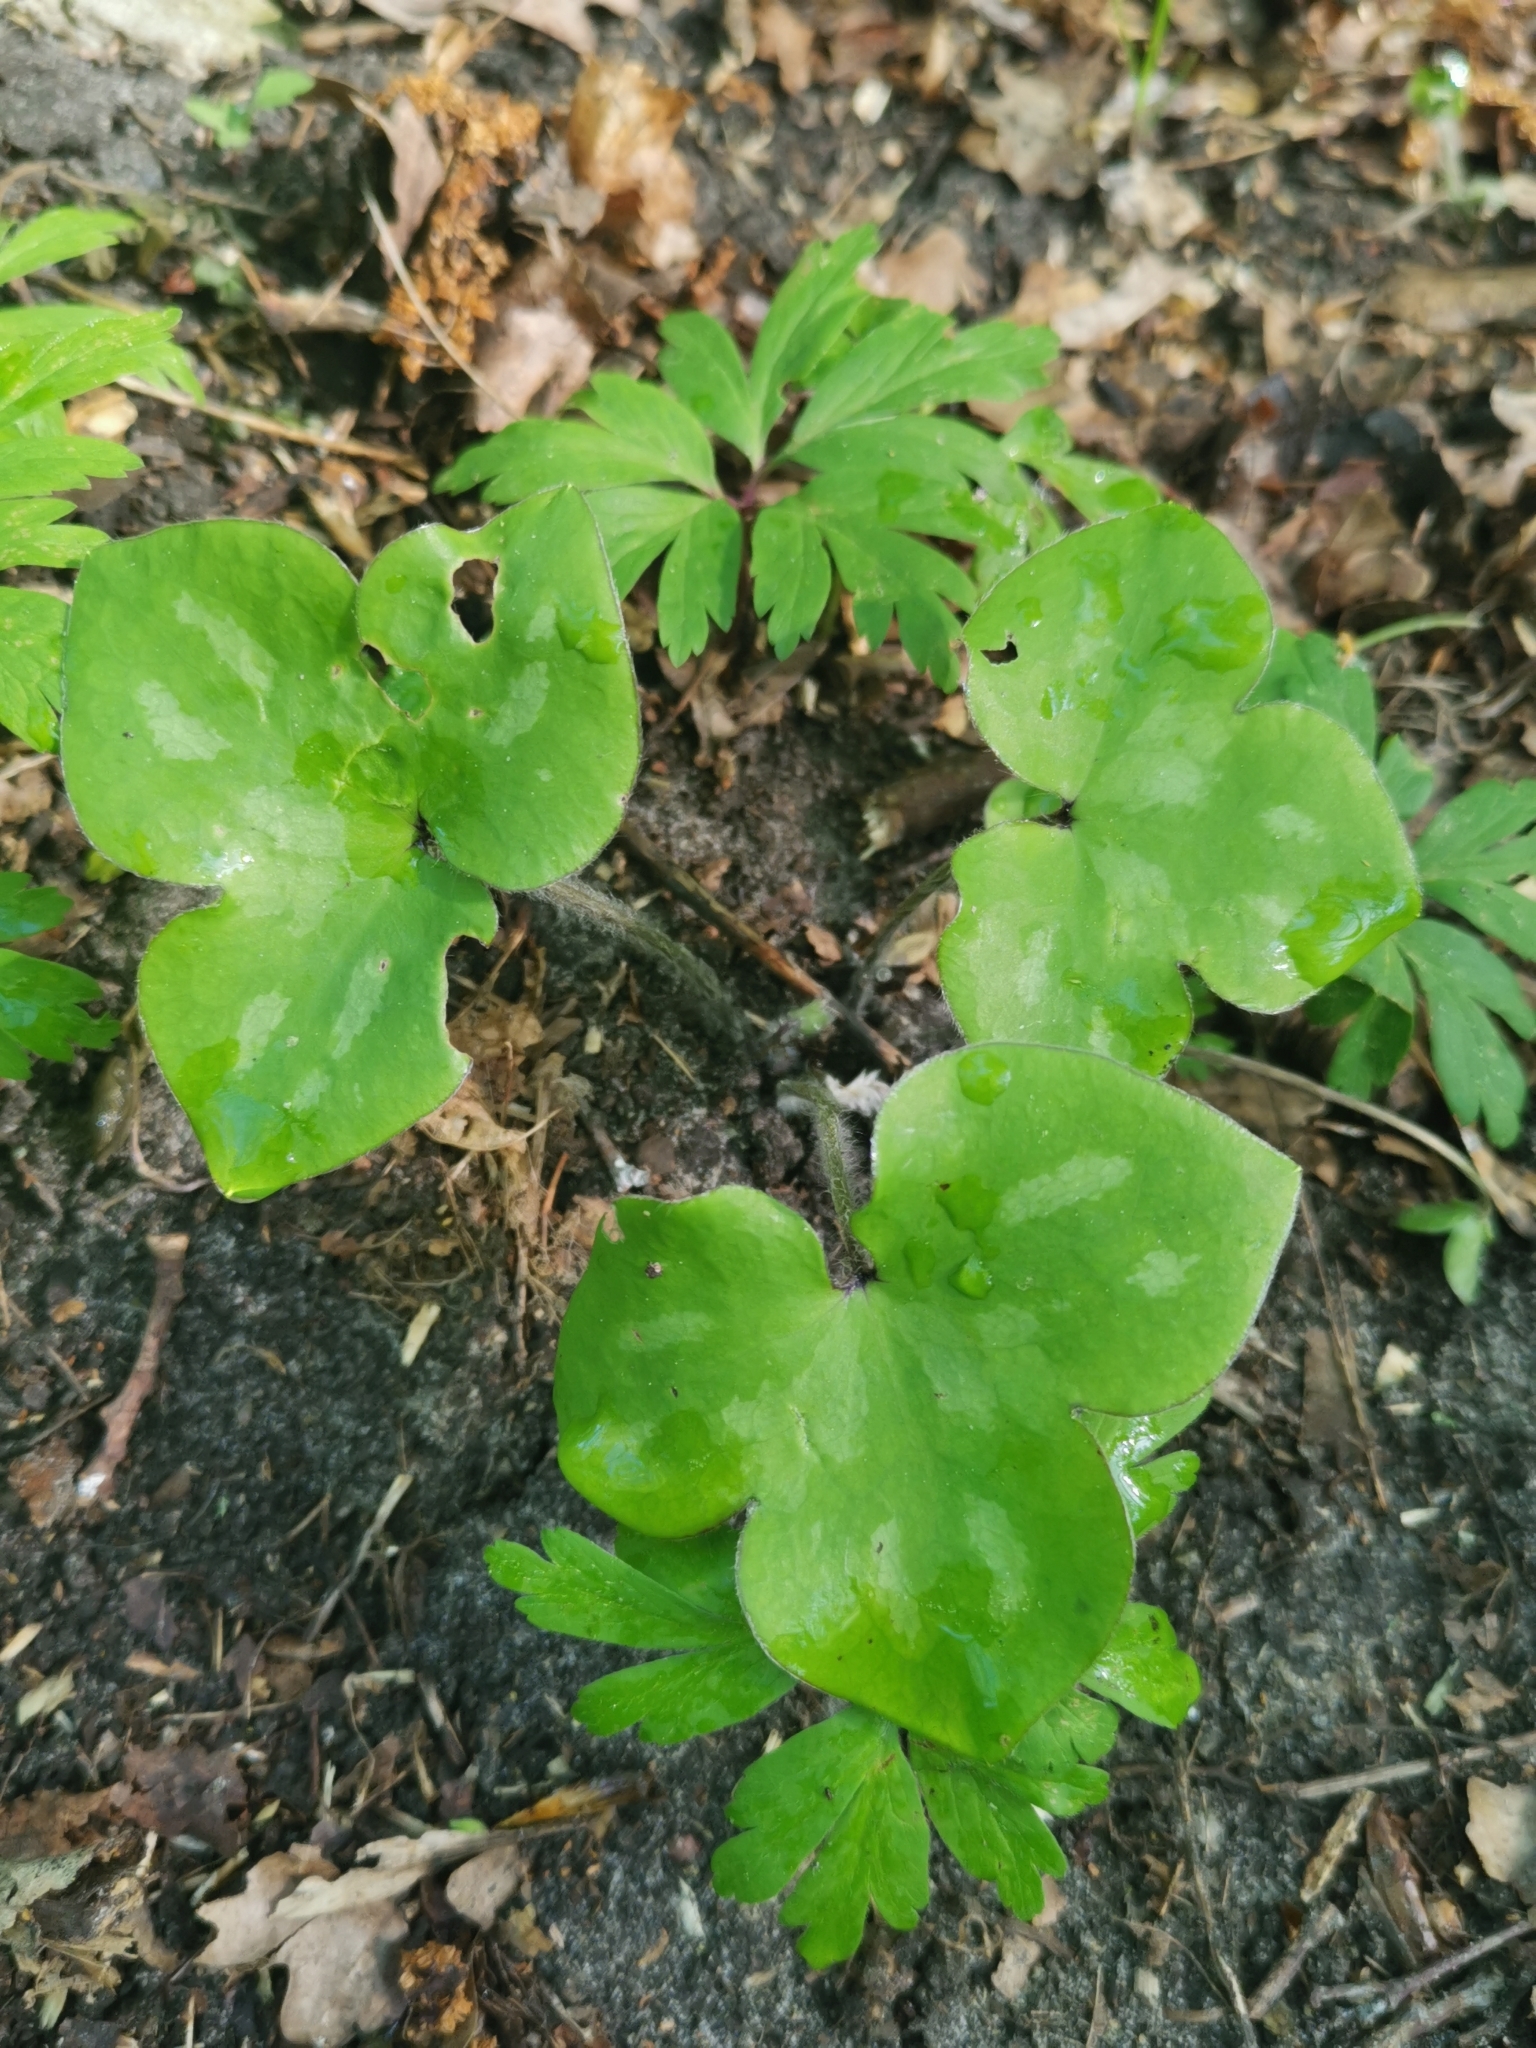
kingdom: Plantae
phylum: Tracheophyta
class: Magnoliopsida
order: Ranunculales
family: Ranunculaceae
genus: Hepatica
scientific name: Hepatica nobilis
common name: Liverleaf
